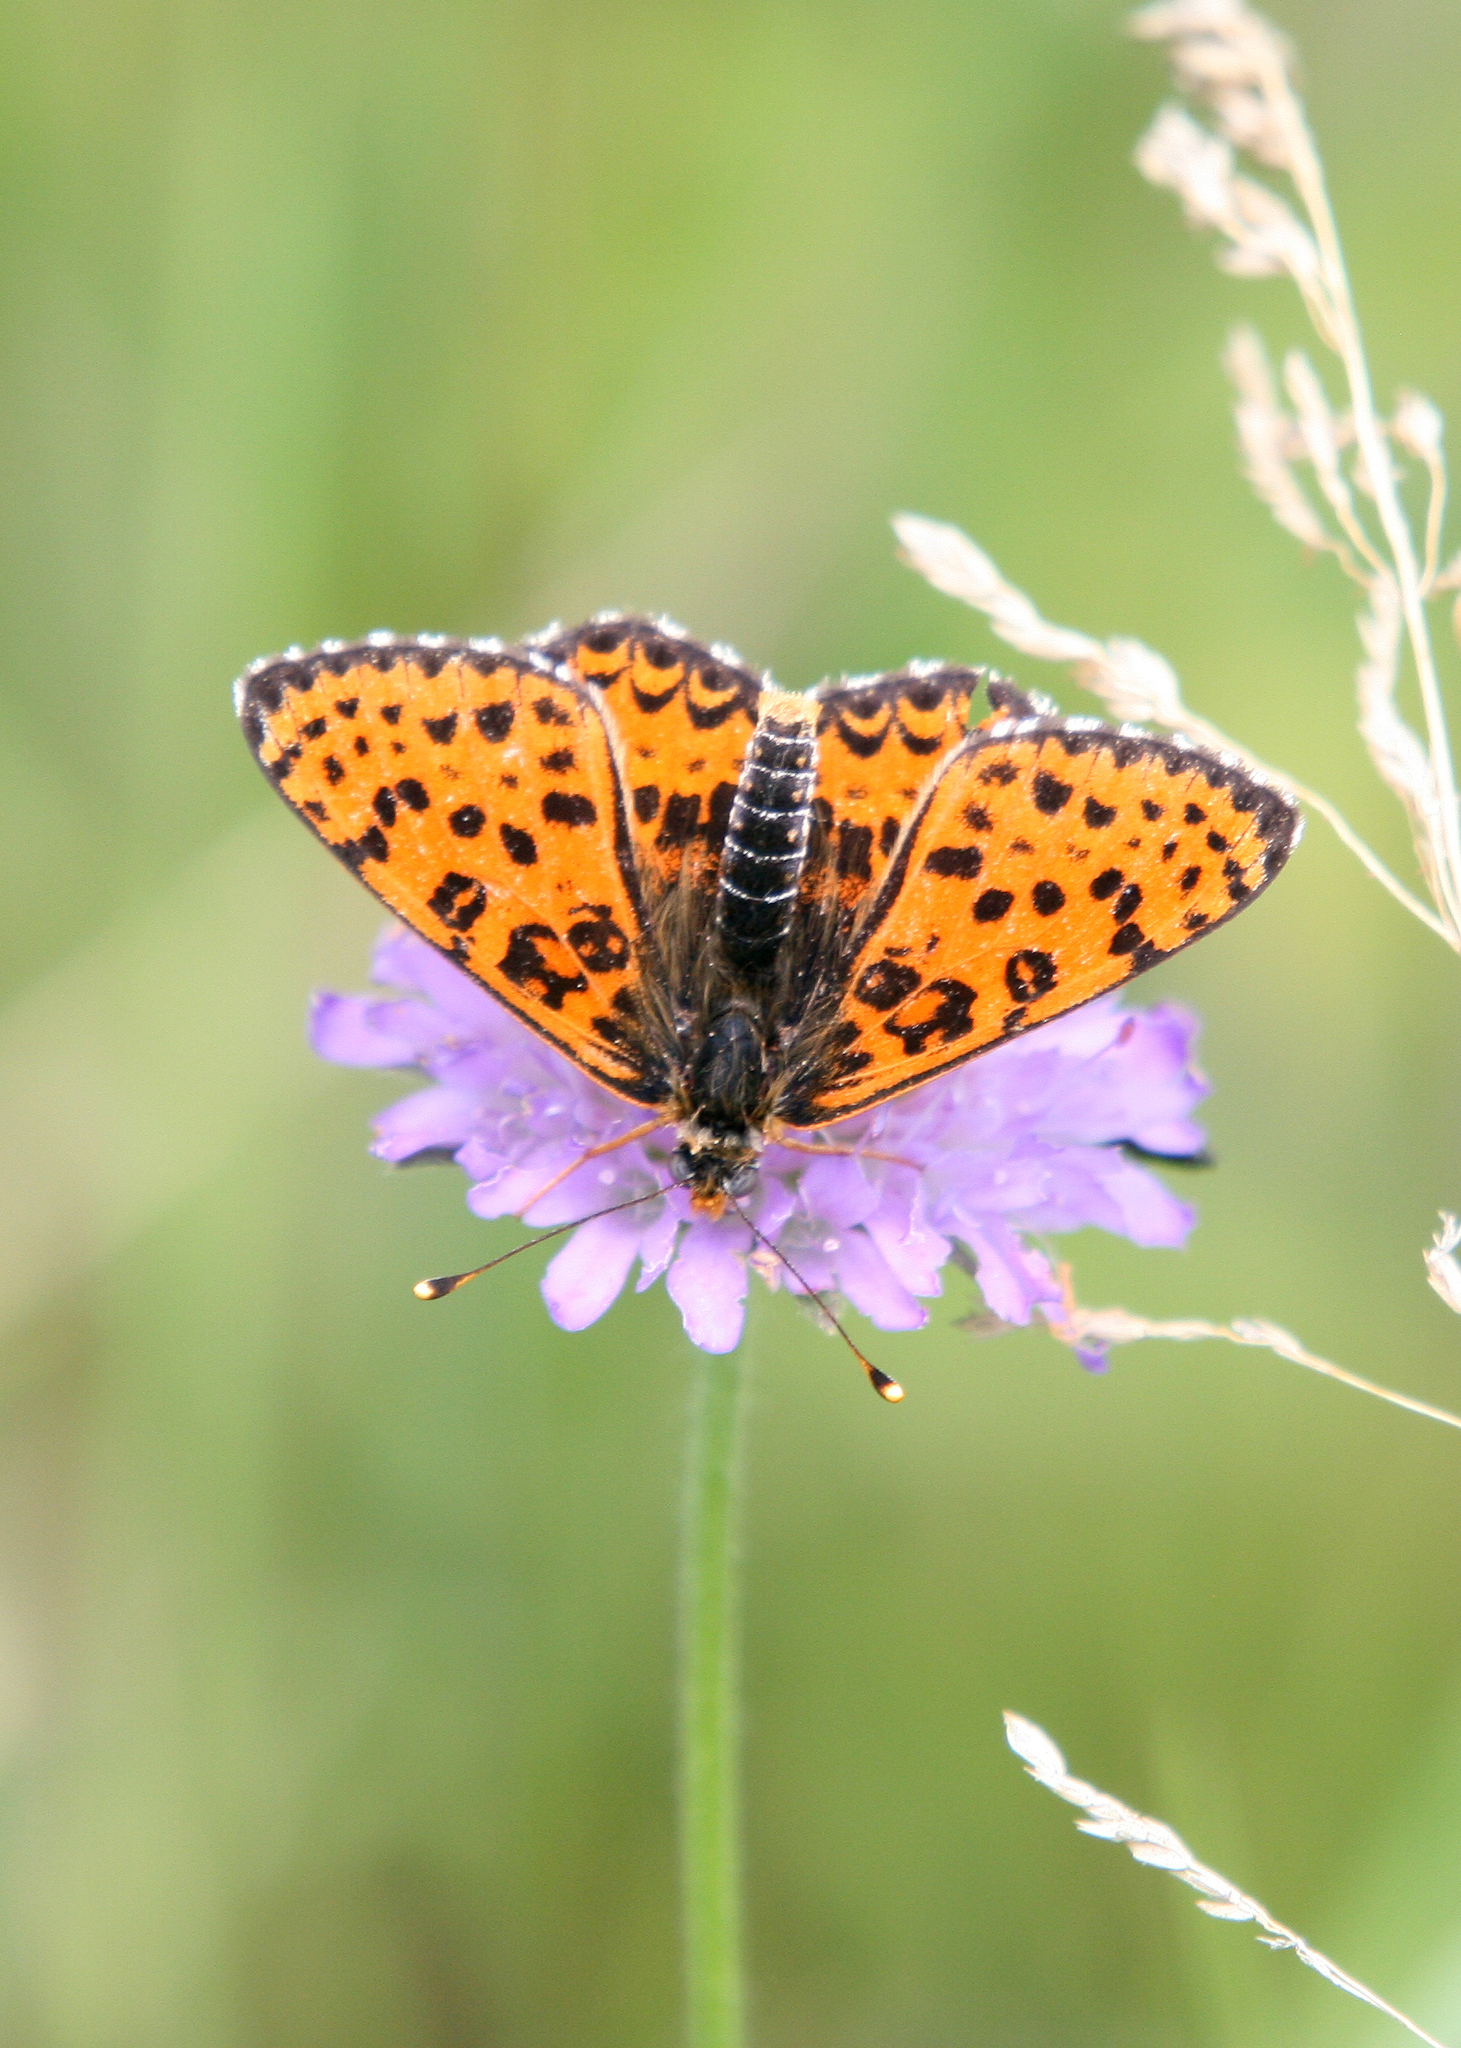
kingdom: Animalia
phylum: Arthropoda
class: Insecta
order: Lepidoptera
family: Nymphalidae
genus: Melitaea
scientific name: Melitaea didyma
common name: Spotted fritillary
